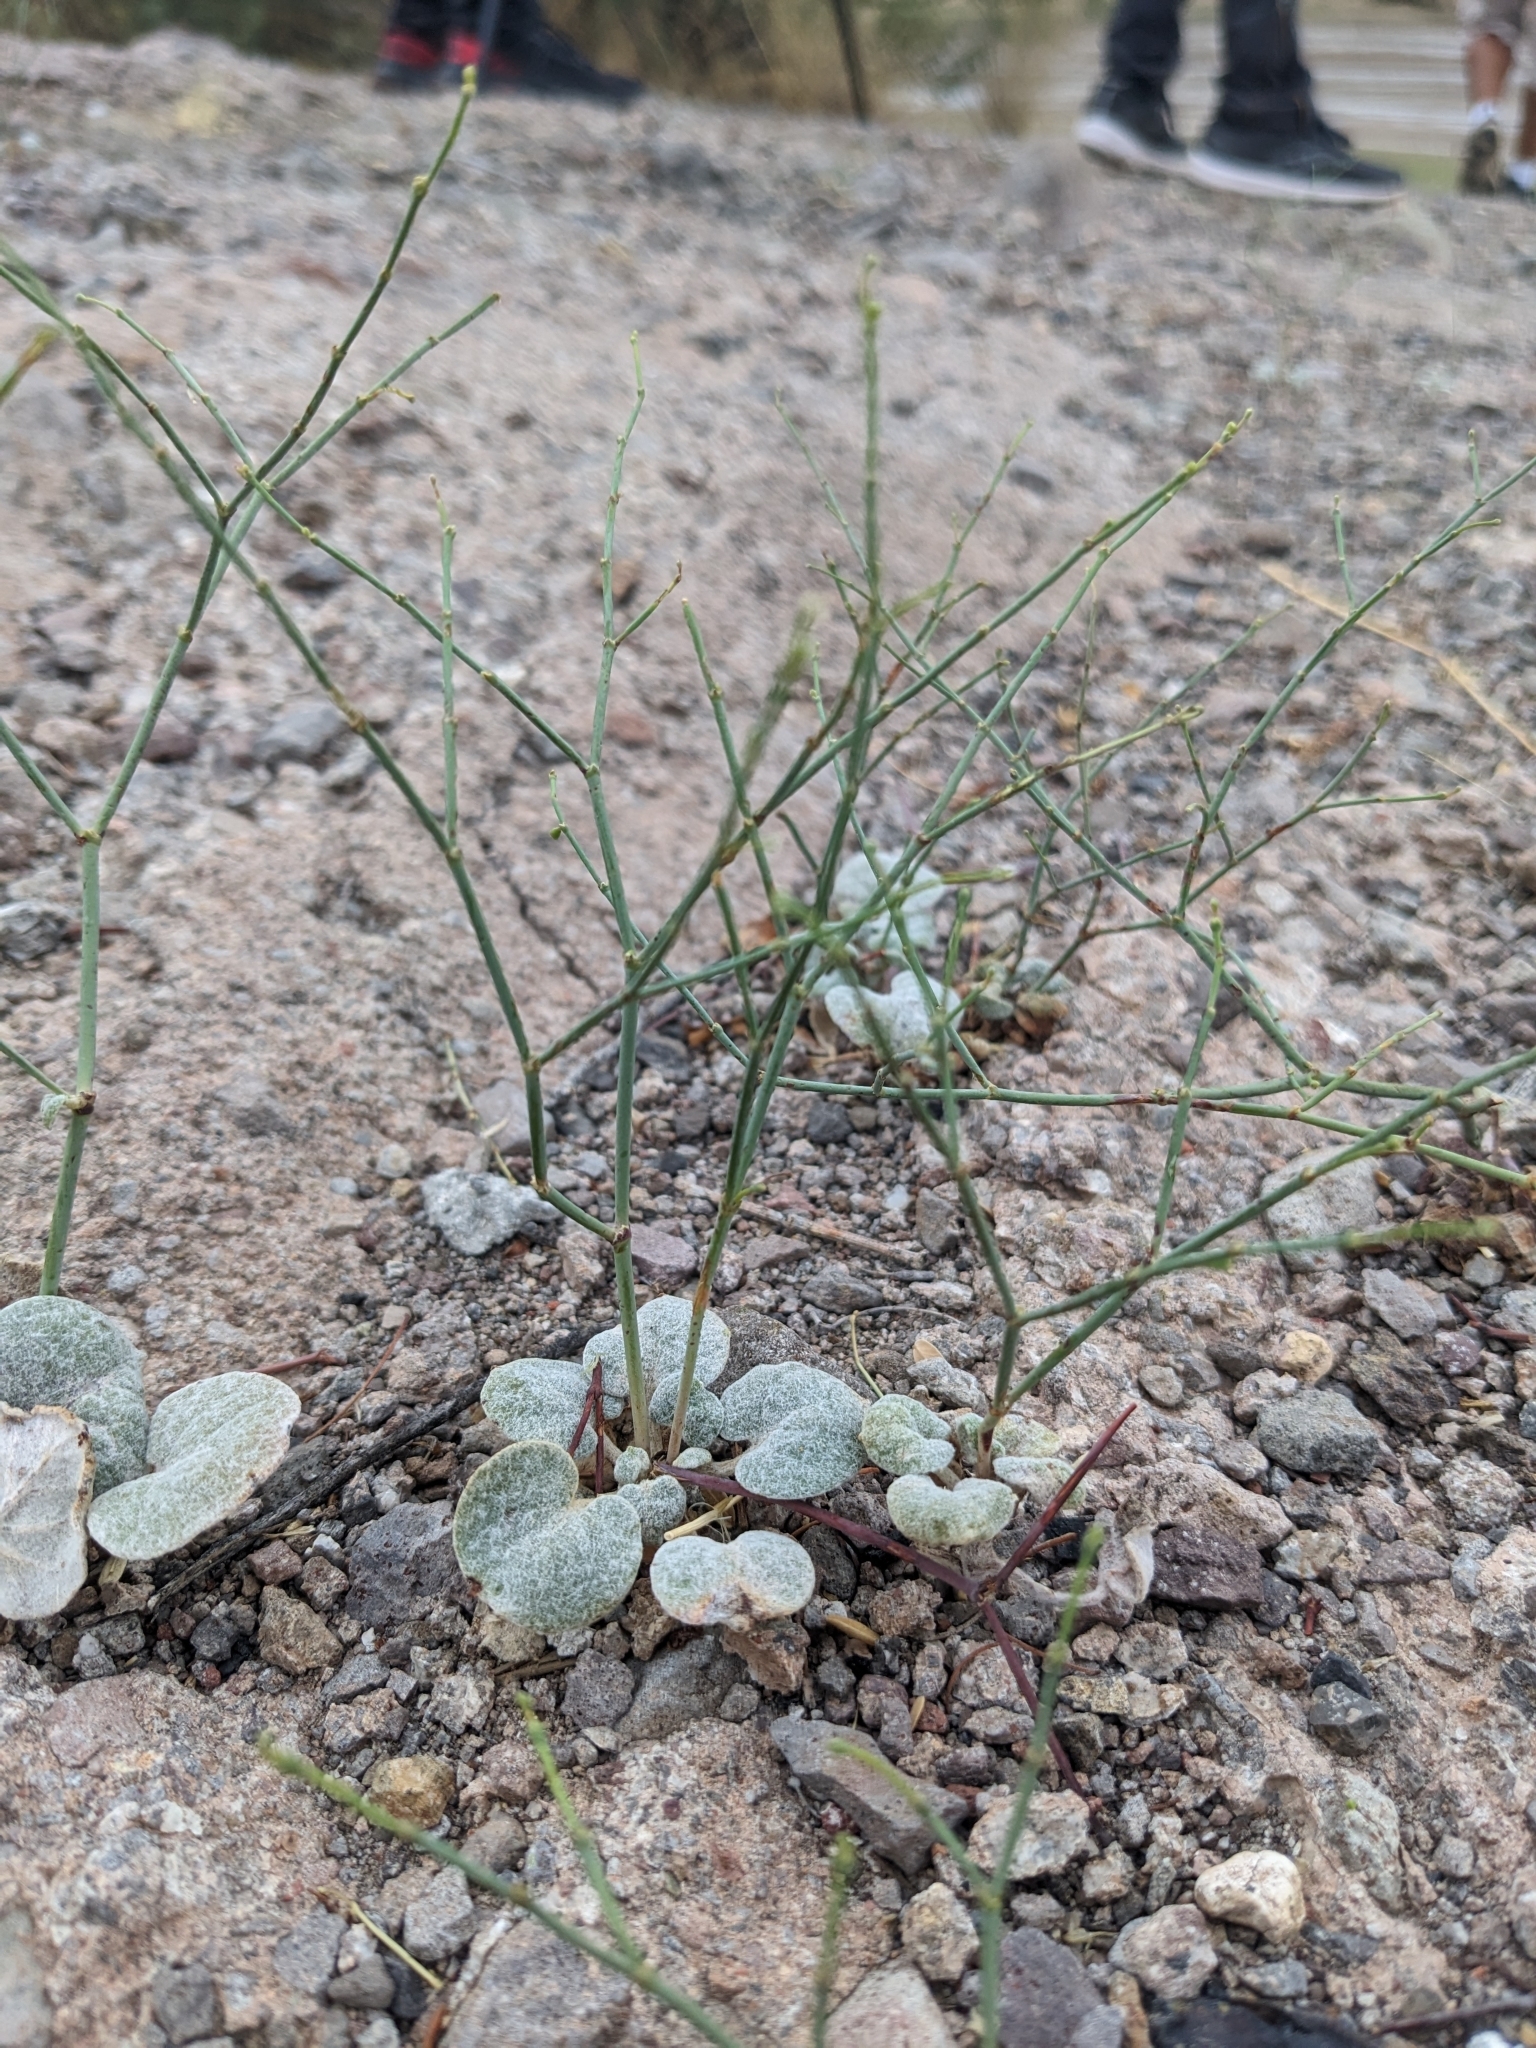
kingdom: Plantae
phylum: Tracheophyta
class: Magnoliopsida
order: Caryophyllales
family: Polygonaceae
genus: Eriogonum
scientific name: Eriogonum deflexum
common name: Skeleton-weed
